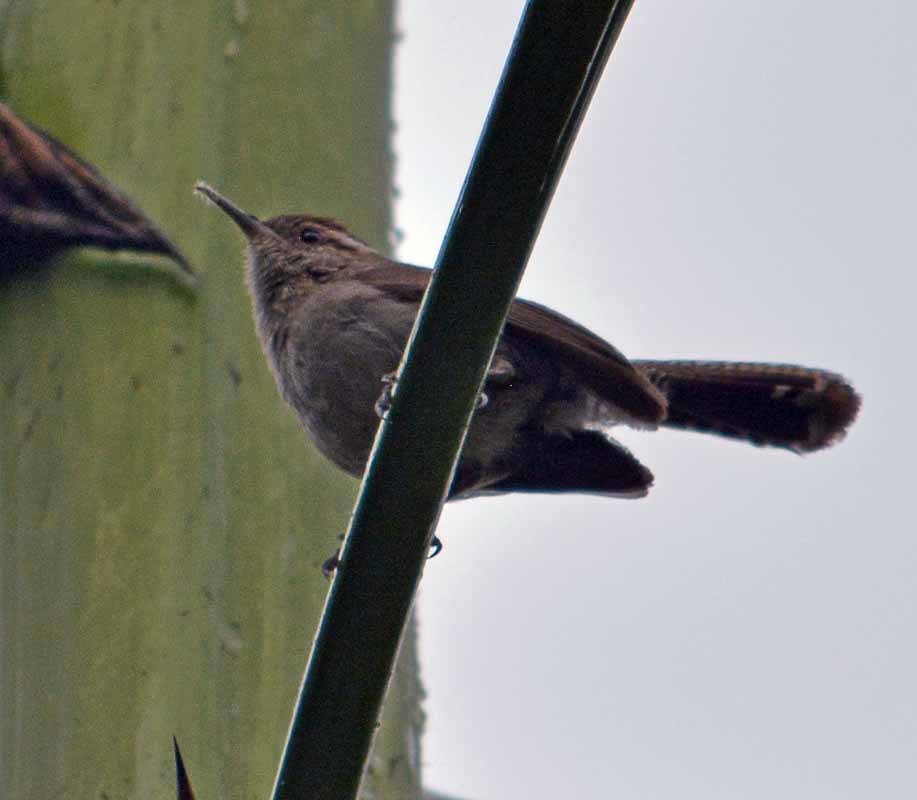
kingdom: Animalia
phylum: Chordata
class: Aves
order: Passeriformes
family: Troglodytidae
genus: Thryomanes
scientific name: Thryomanes bewickii
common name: Bewick's wren
